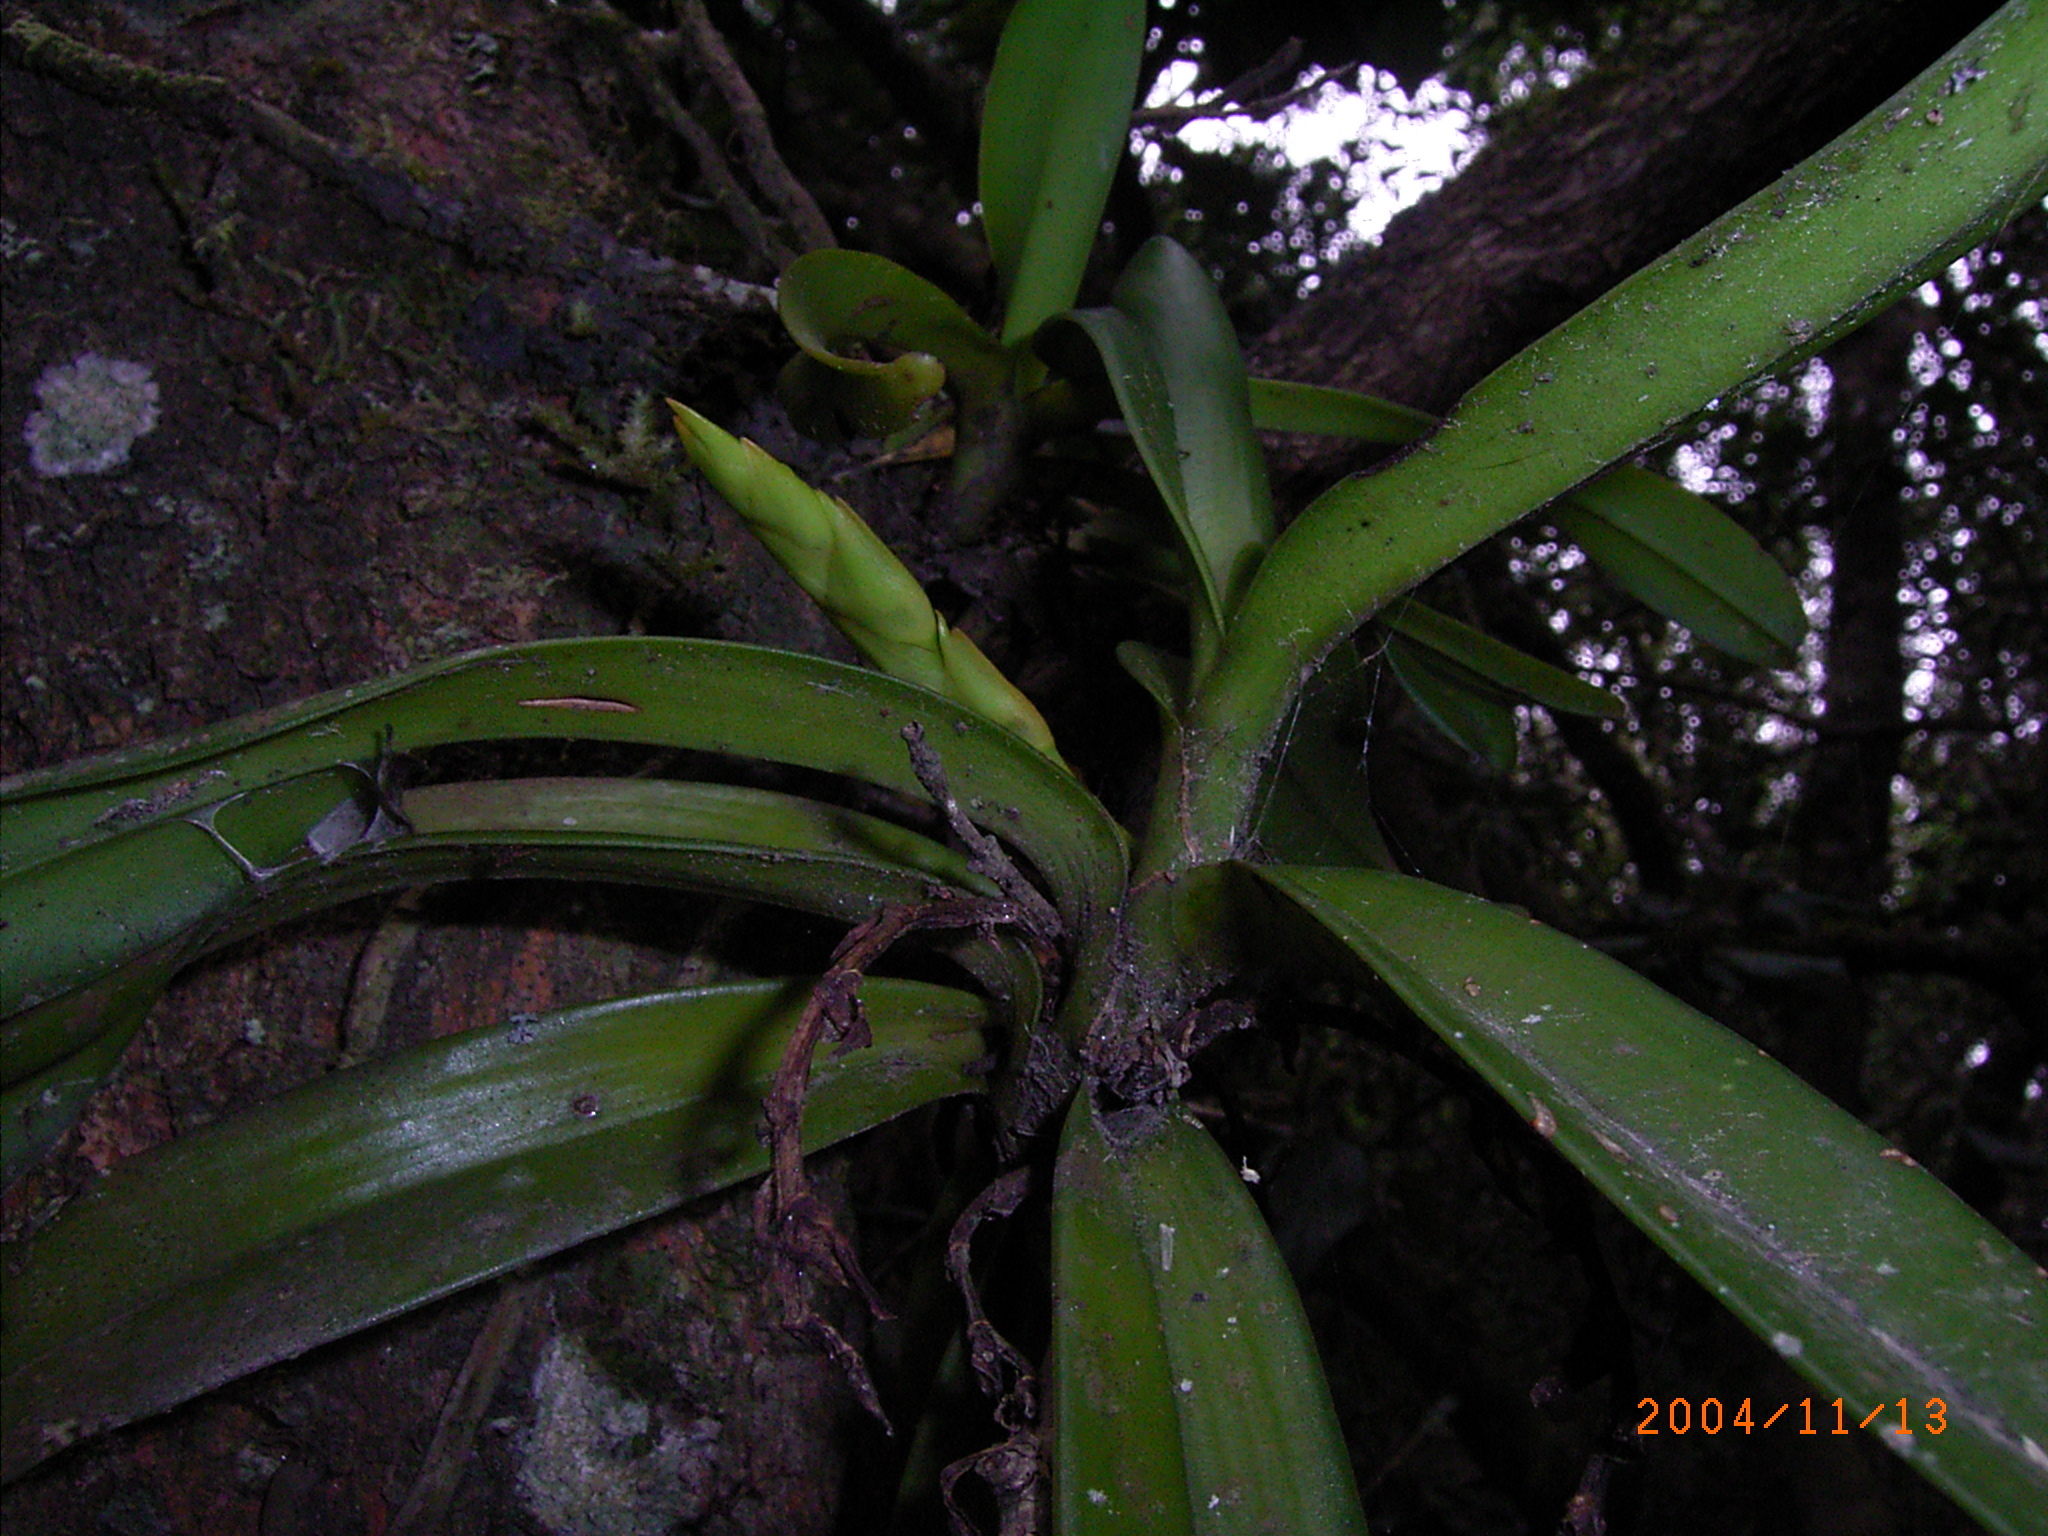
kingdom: Plantae
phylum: Tracheophyta
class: Liliopsida
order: Asparagales
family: Orchidaceae
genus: Cyrtorchis
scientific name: Cyrtorchis arcuata
